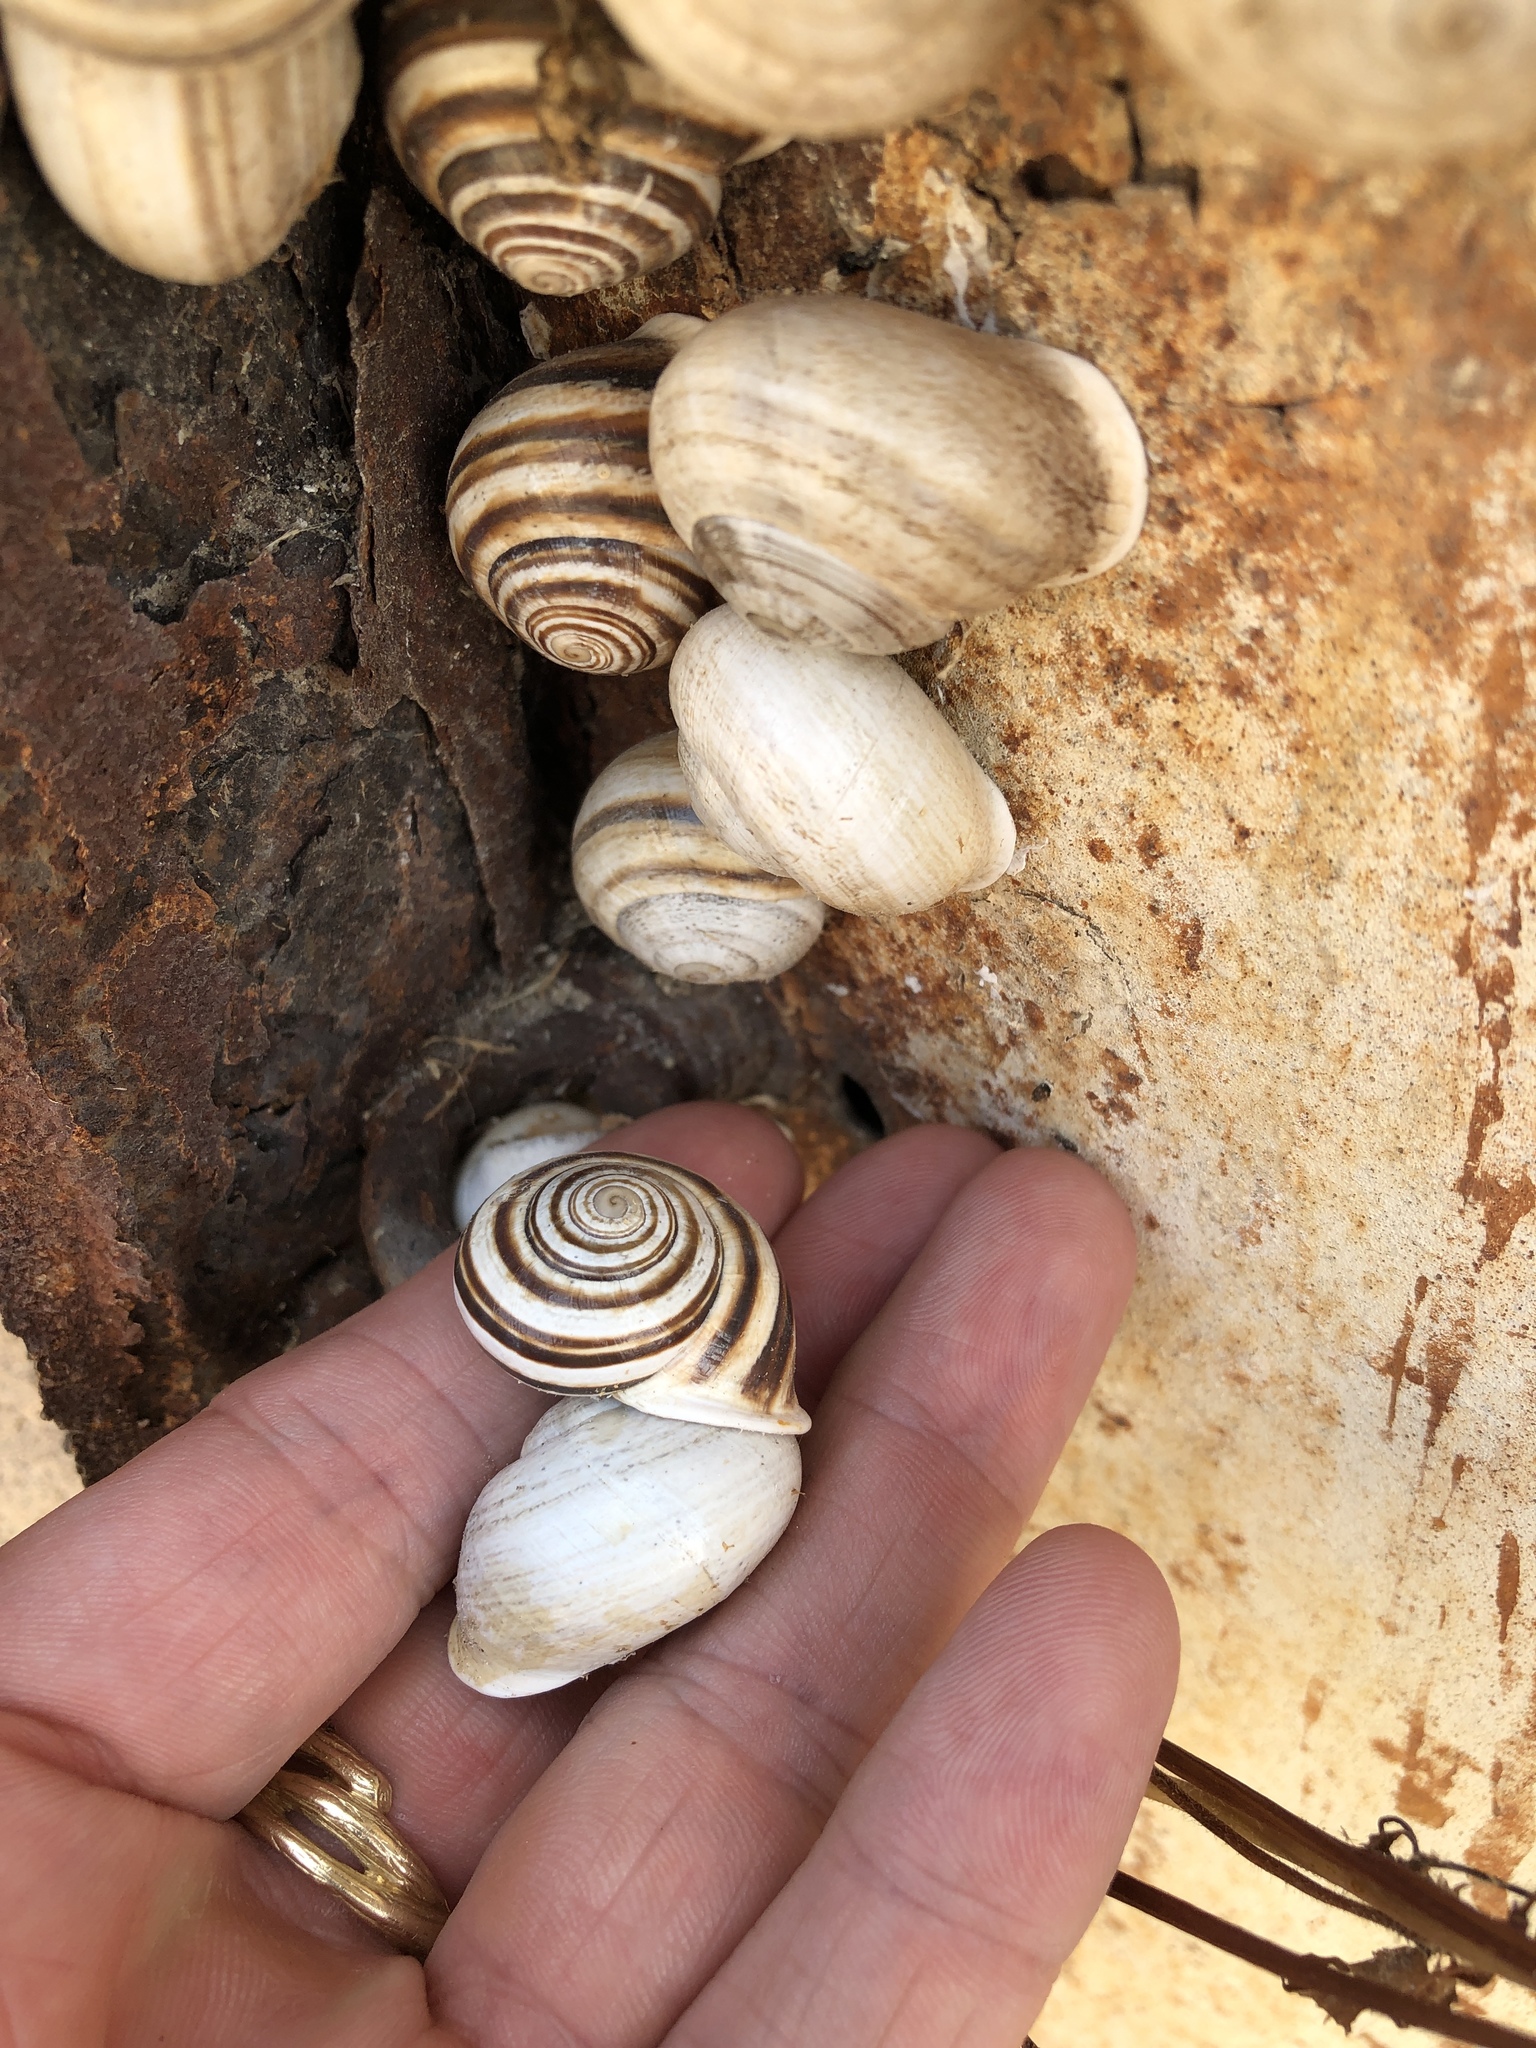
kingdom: Animalia
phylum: Mollusca
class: Gastropoda
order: Stylommatophora
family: Helicidae
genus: Otala
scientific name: Otala lactea
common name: Milk snail
